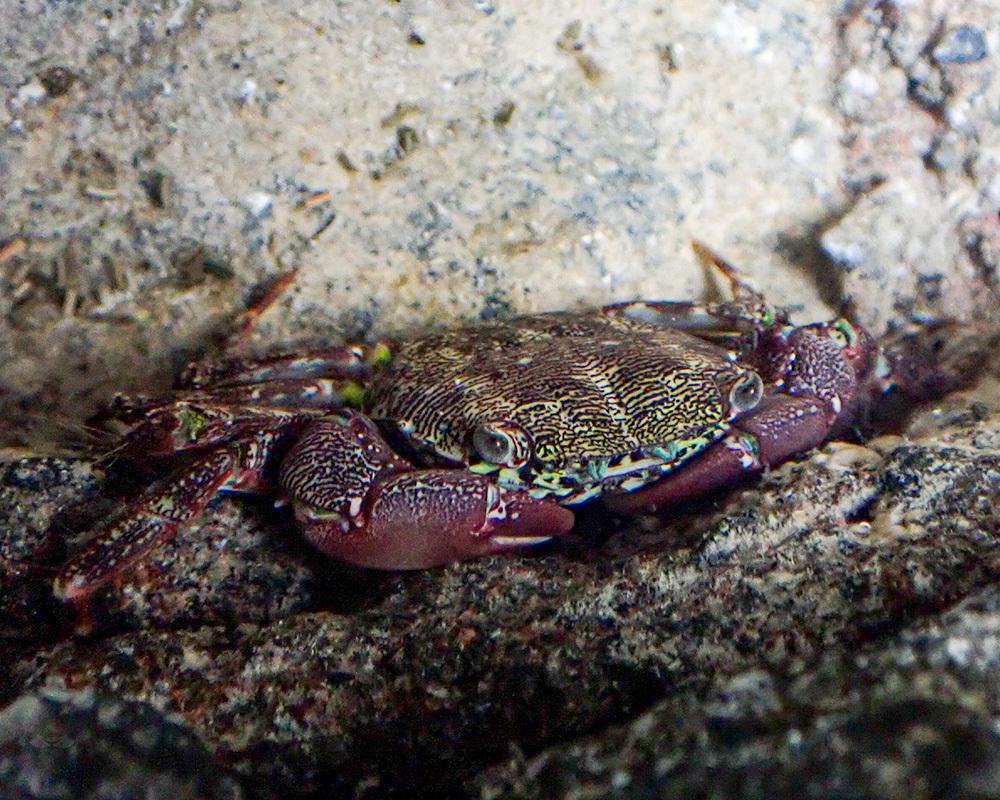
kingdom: Animalia
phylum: Arthropoda
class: Malacostraca
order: Decapoda
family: Grapsidae
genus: Pachygrapsus
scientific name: Pachygrapsus marmoratus
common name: Marbled rock crab
